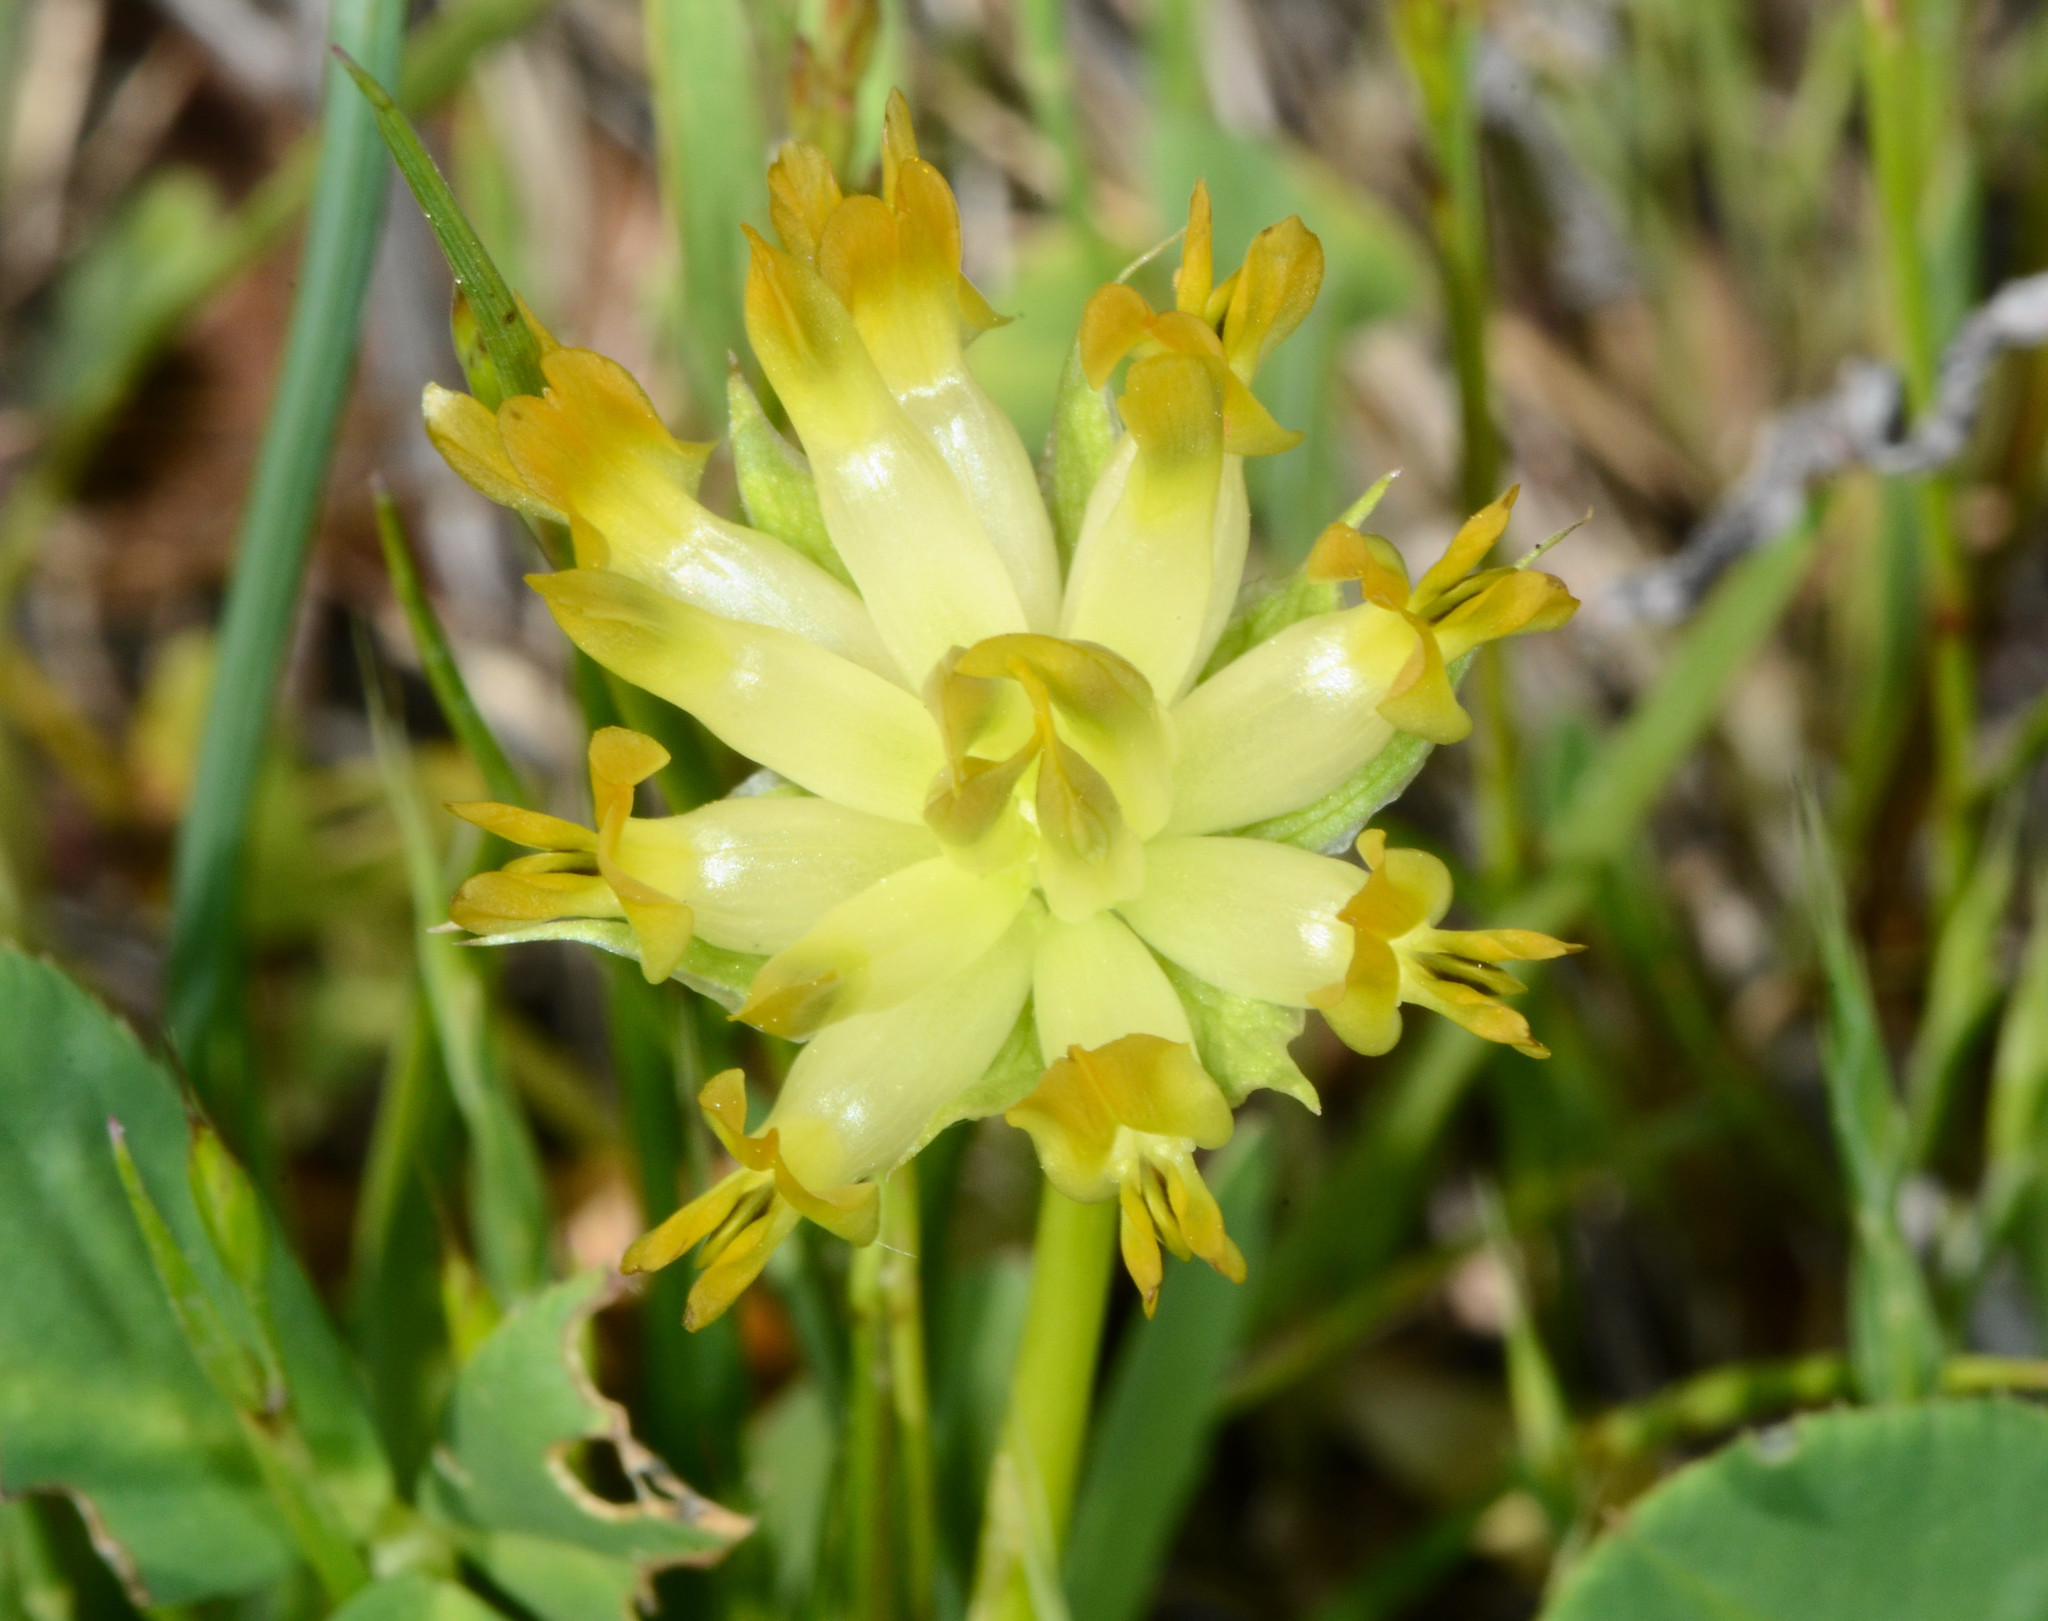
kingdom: Plantae
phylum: Tracheophyta
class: Magnoliopsida
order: Fabales
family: Fabaceae
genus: Trifolium
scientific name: Trifolium fucatum
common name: Puff clover
